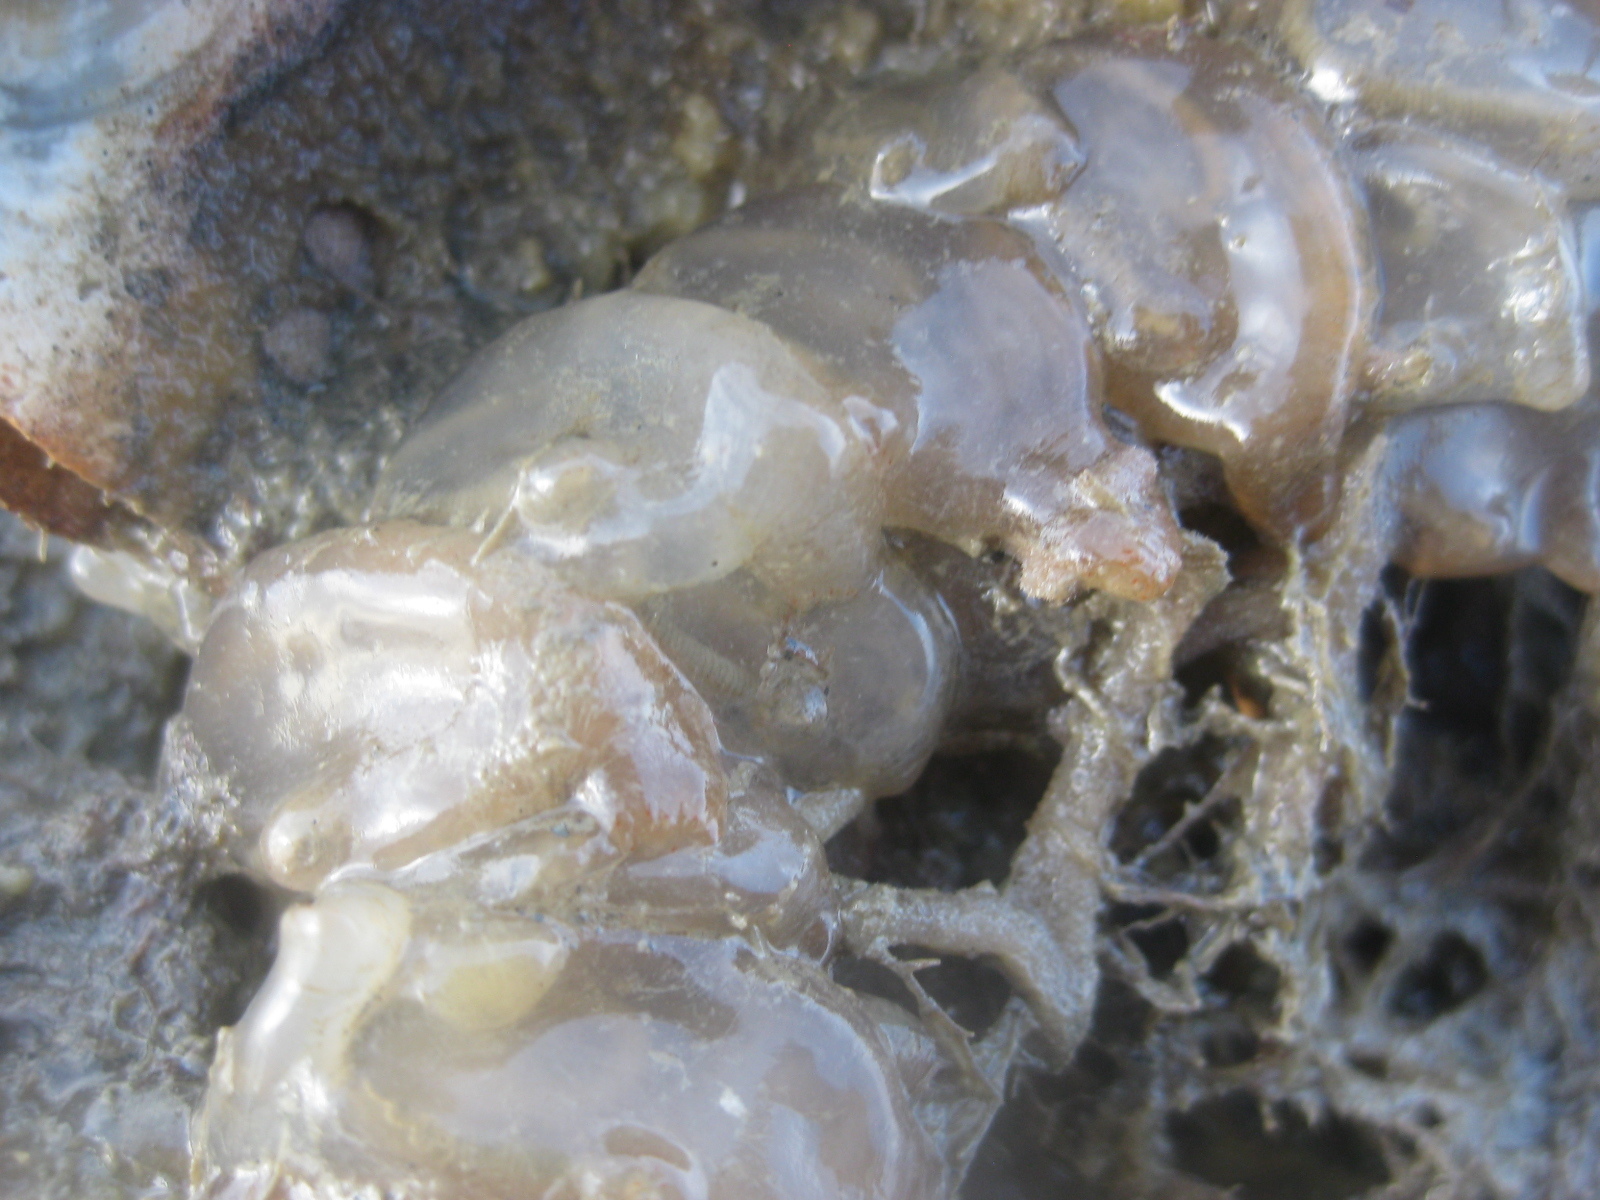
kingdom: Animalia
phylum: Chordata
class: Ascidiacea
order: Phlebobranchia
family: Agneziidae
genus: Agnezia
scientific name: Agnezia glaciata
